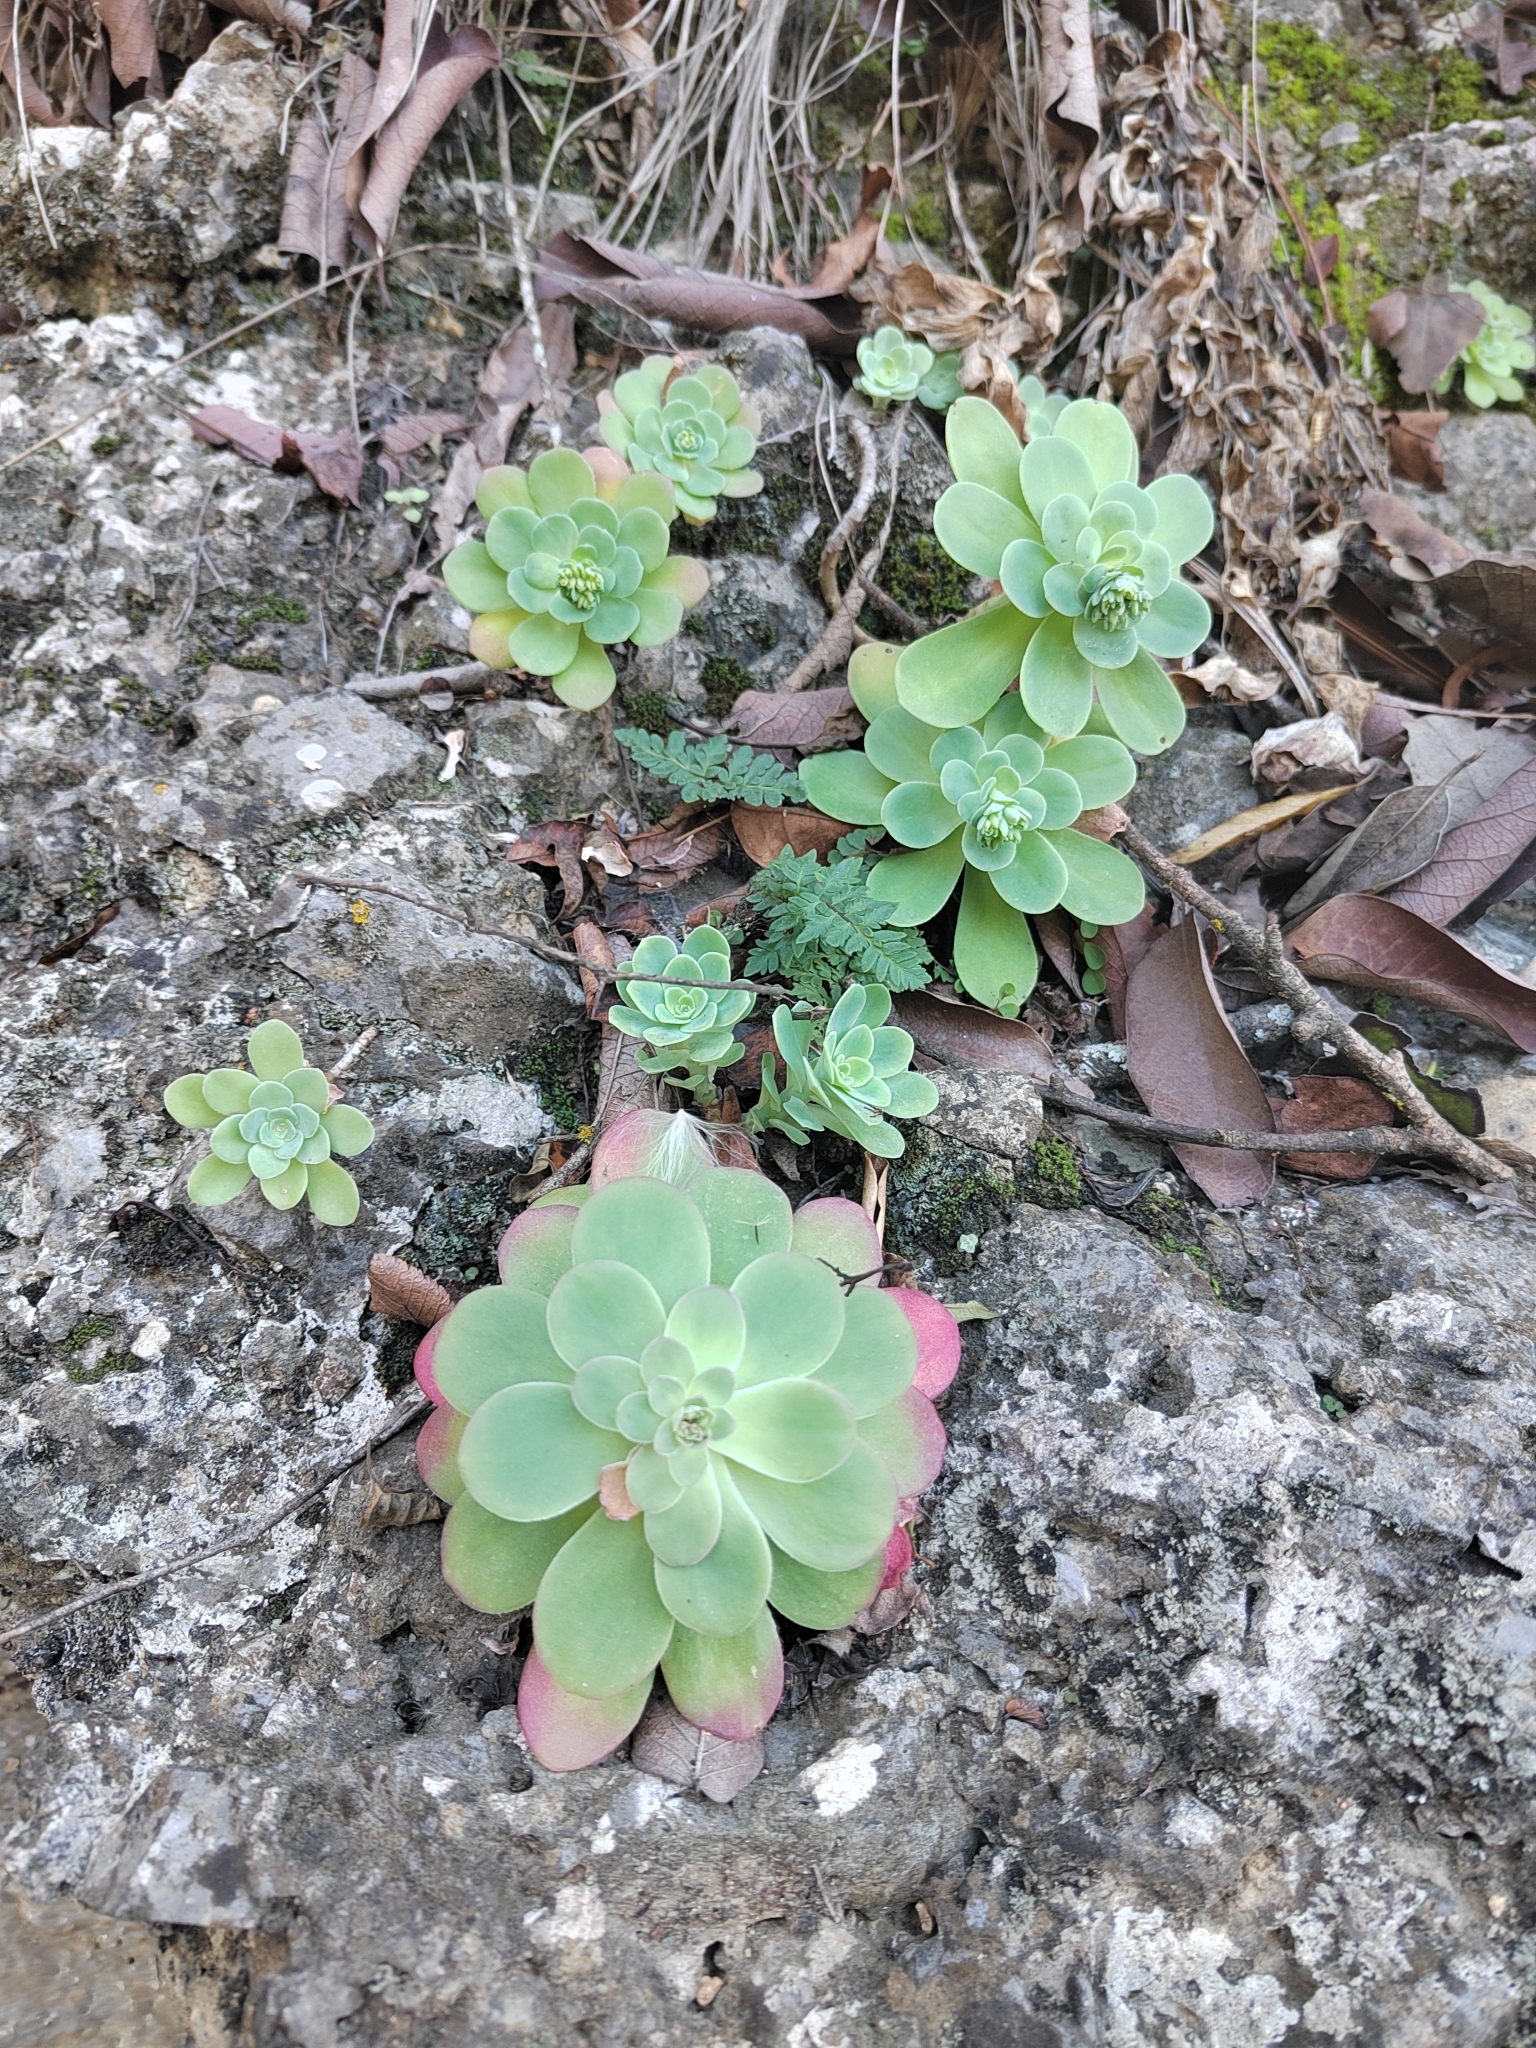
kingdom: Plantae
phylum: Tracheophyta
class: Magnoliopsida
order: Saxifragales
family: Crassulaceae
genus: Sedum
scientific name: Sedum palmeri
